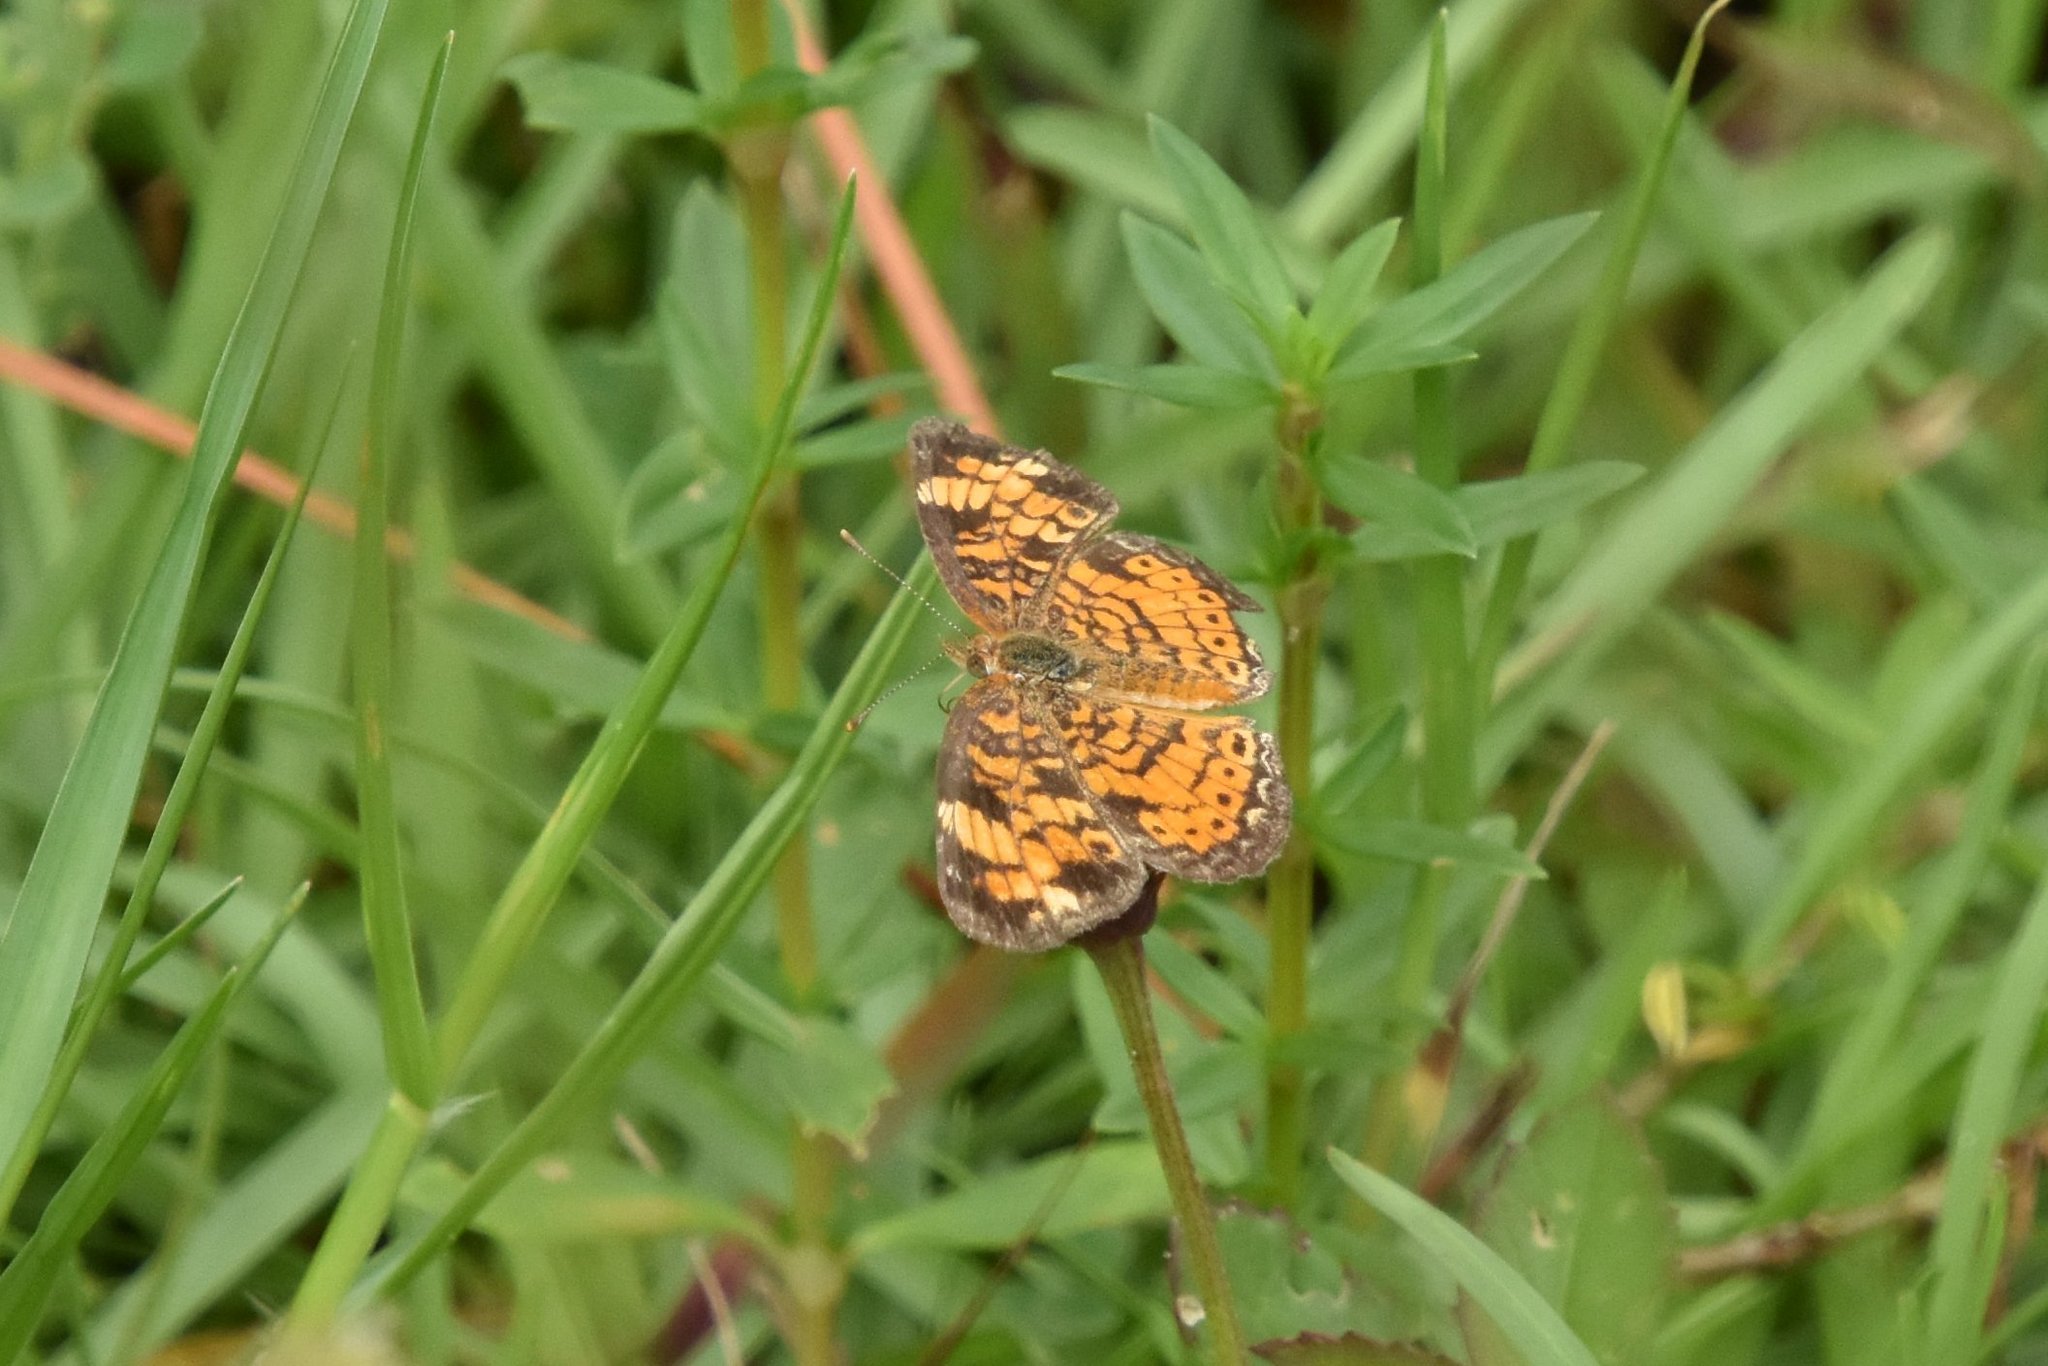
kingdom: Animalia
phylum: Arthropoda
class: Insecta
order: Lepidoptera
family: Nymphalidae
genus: Phyciodes
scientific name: Phyciodes tharos
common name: Pearl crescent
